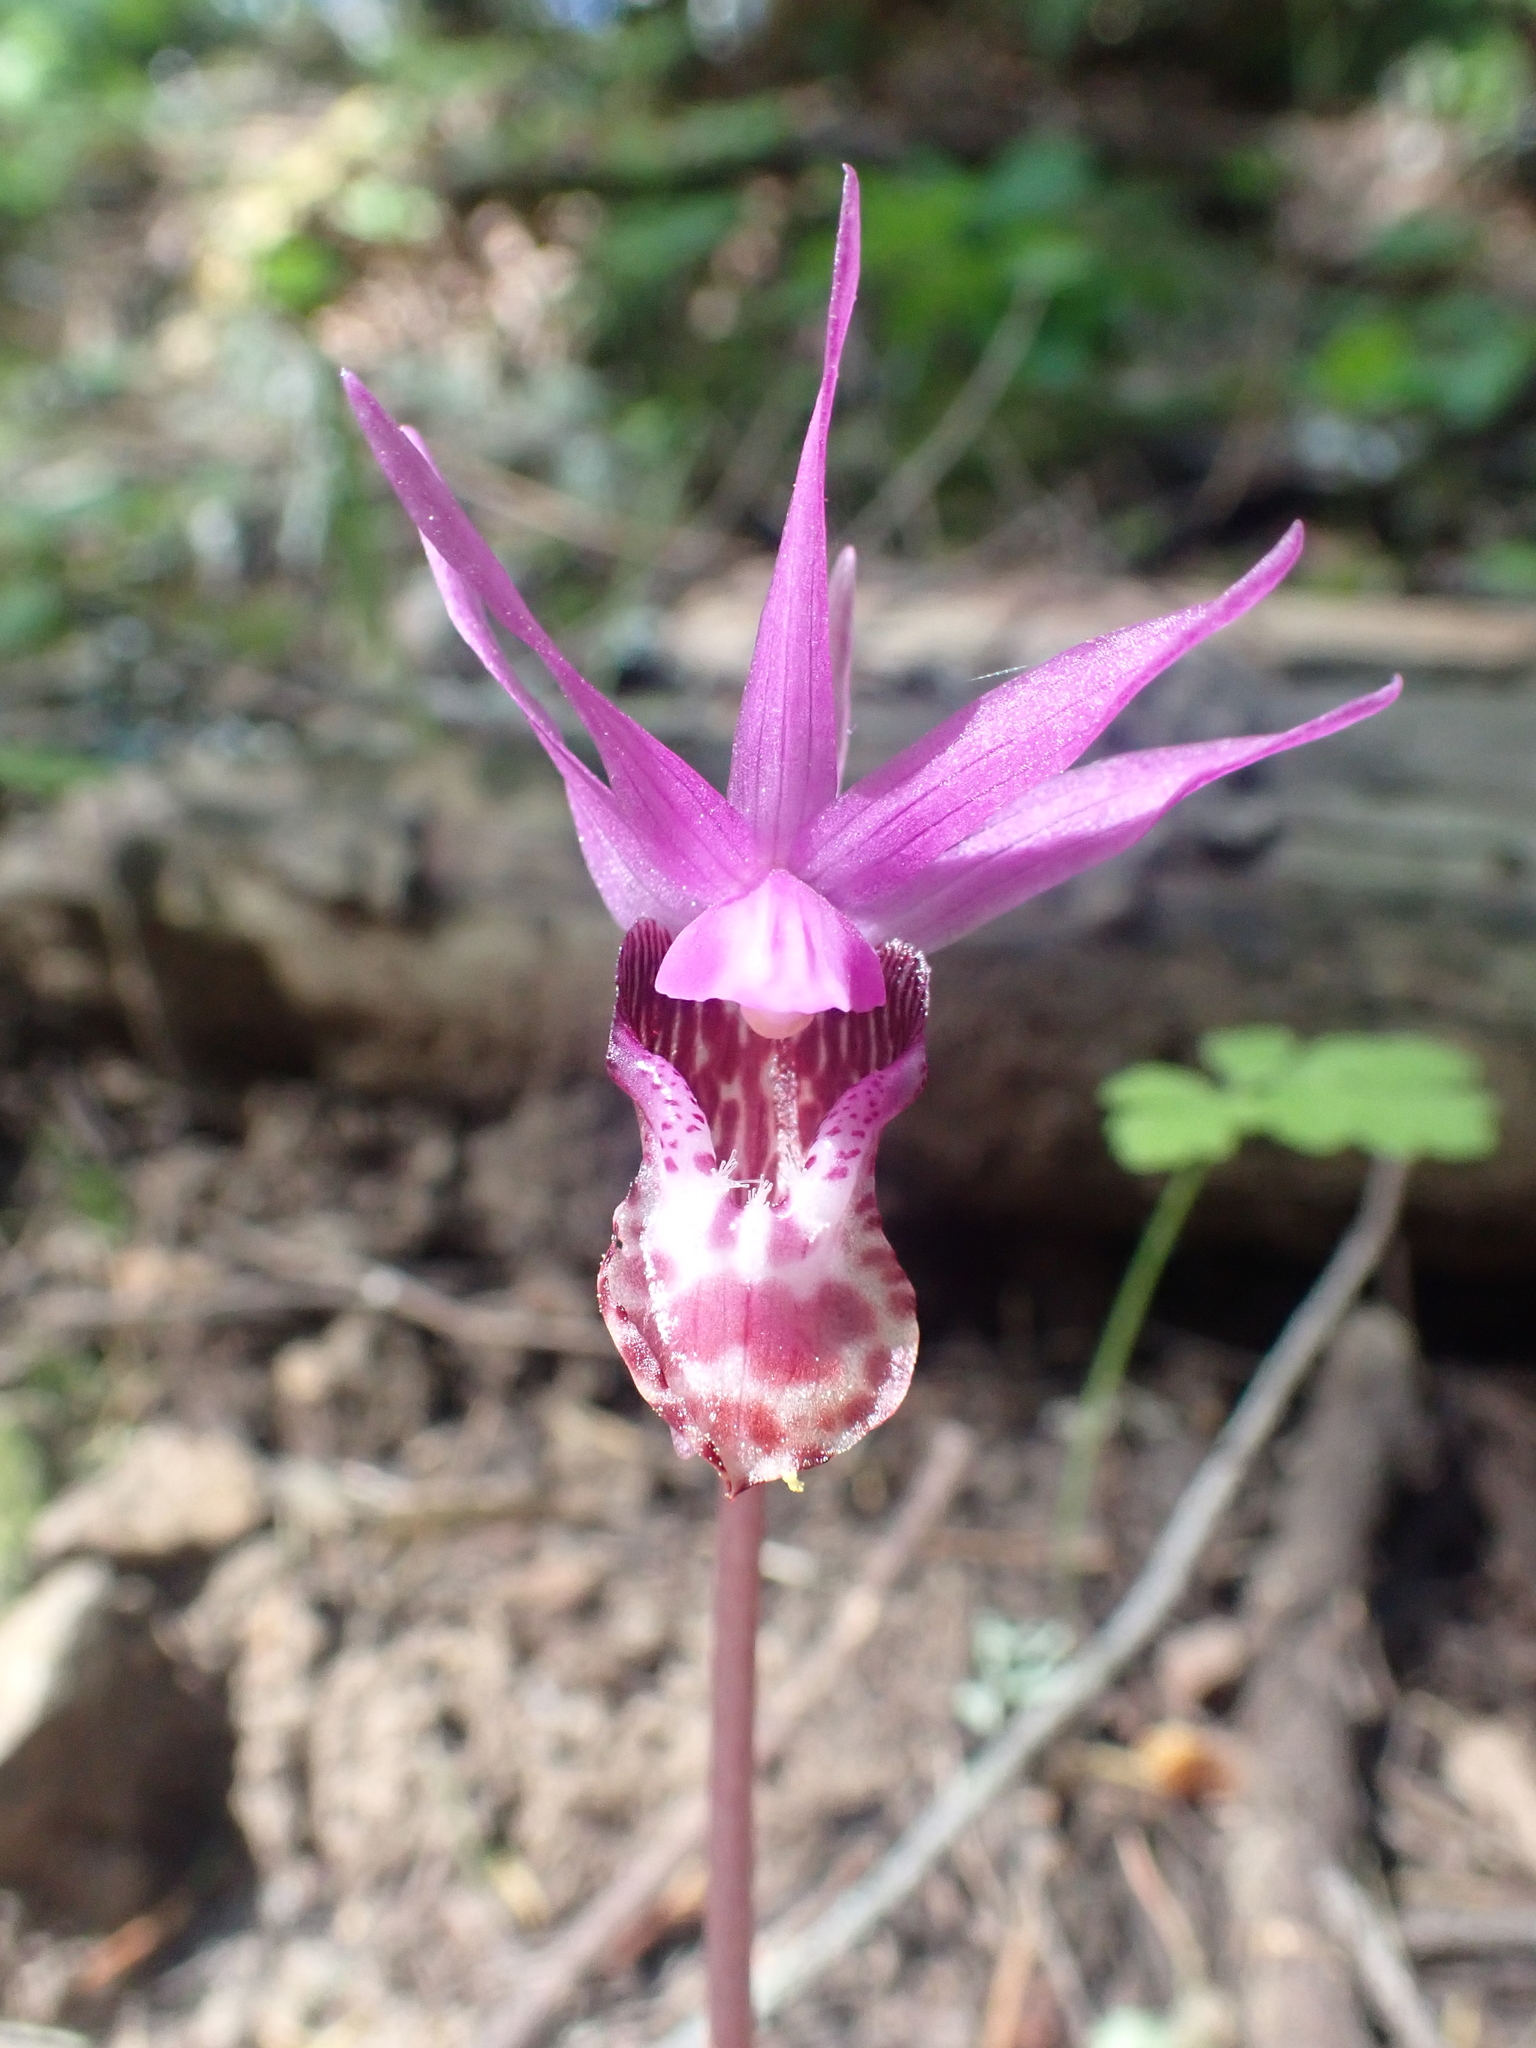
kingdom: Plantae
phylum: Tracheophyta
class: Liliopsida
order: Asparagales
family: Orchidaceae
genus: Calypso
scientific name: Calypso bulbosa
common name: Calypso
